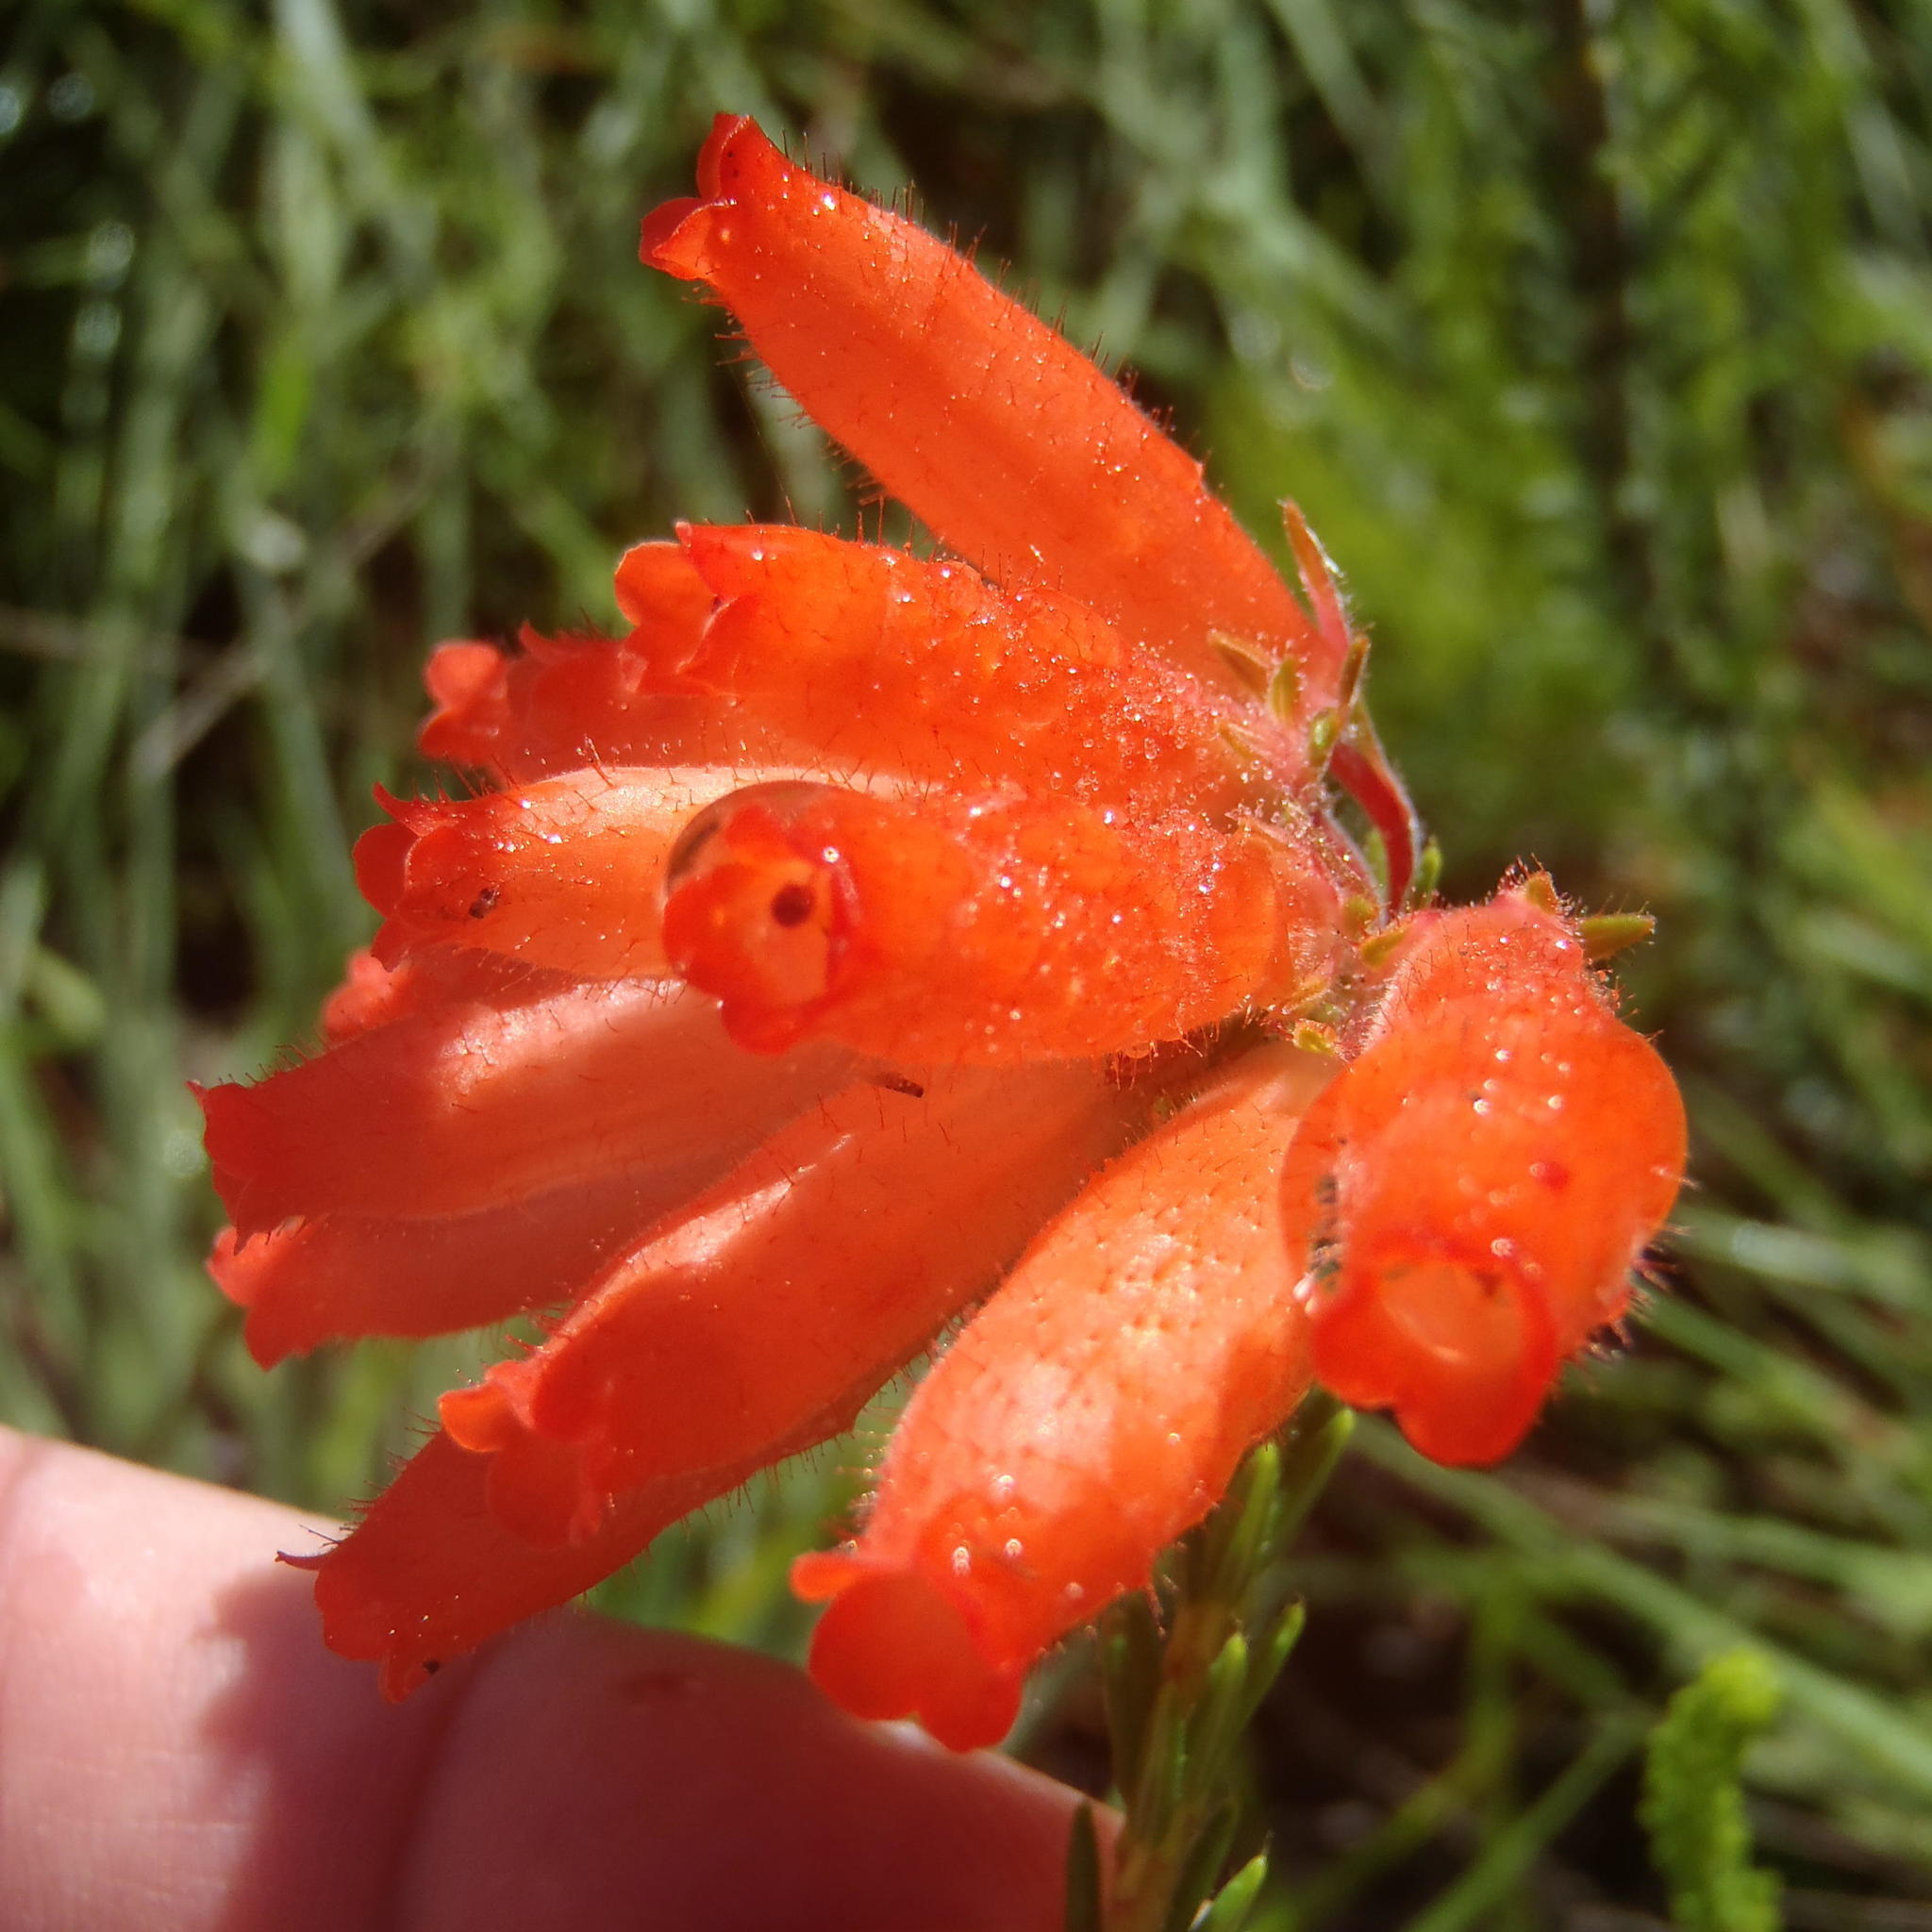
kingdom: Plantae
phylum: Tracheophyta
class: Magnoliopsida
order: Ericales
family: Ericaceae
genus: Erica
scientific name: Erica cerinthoides
